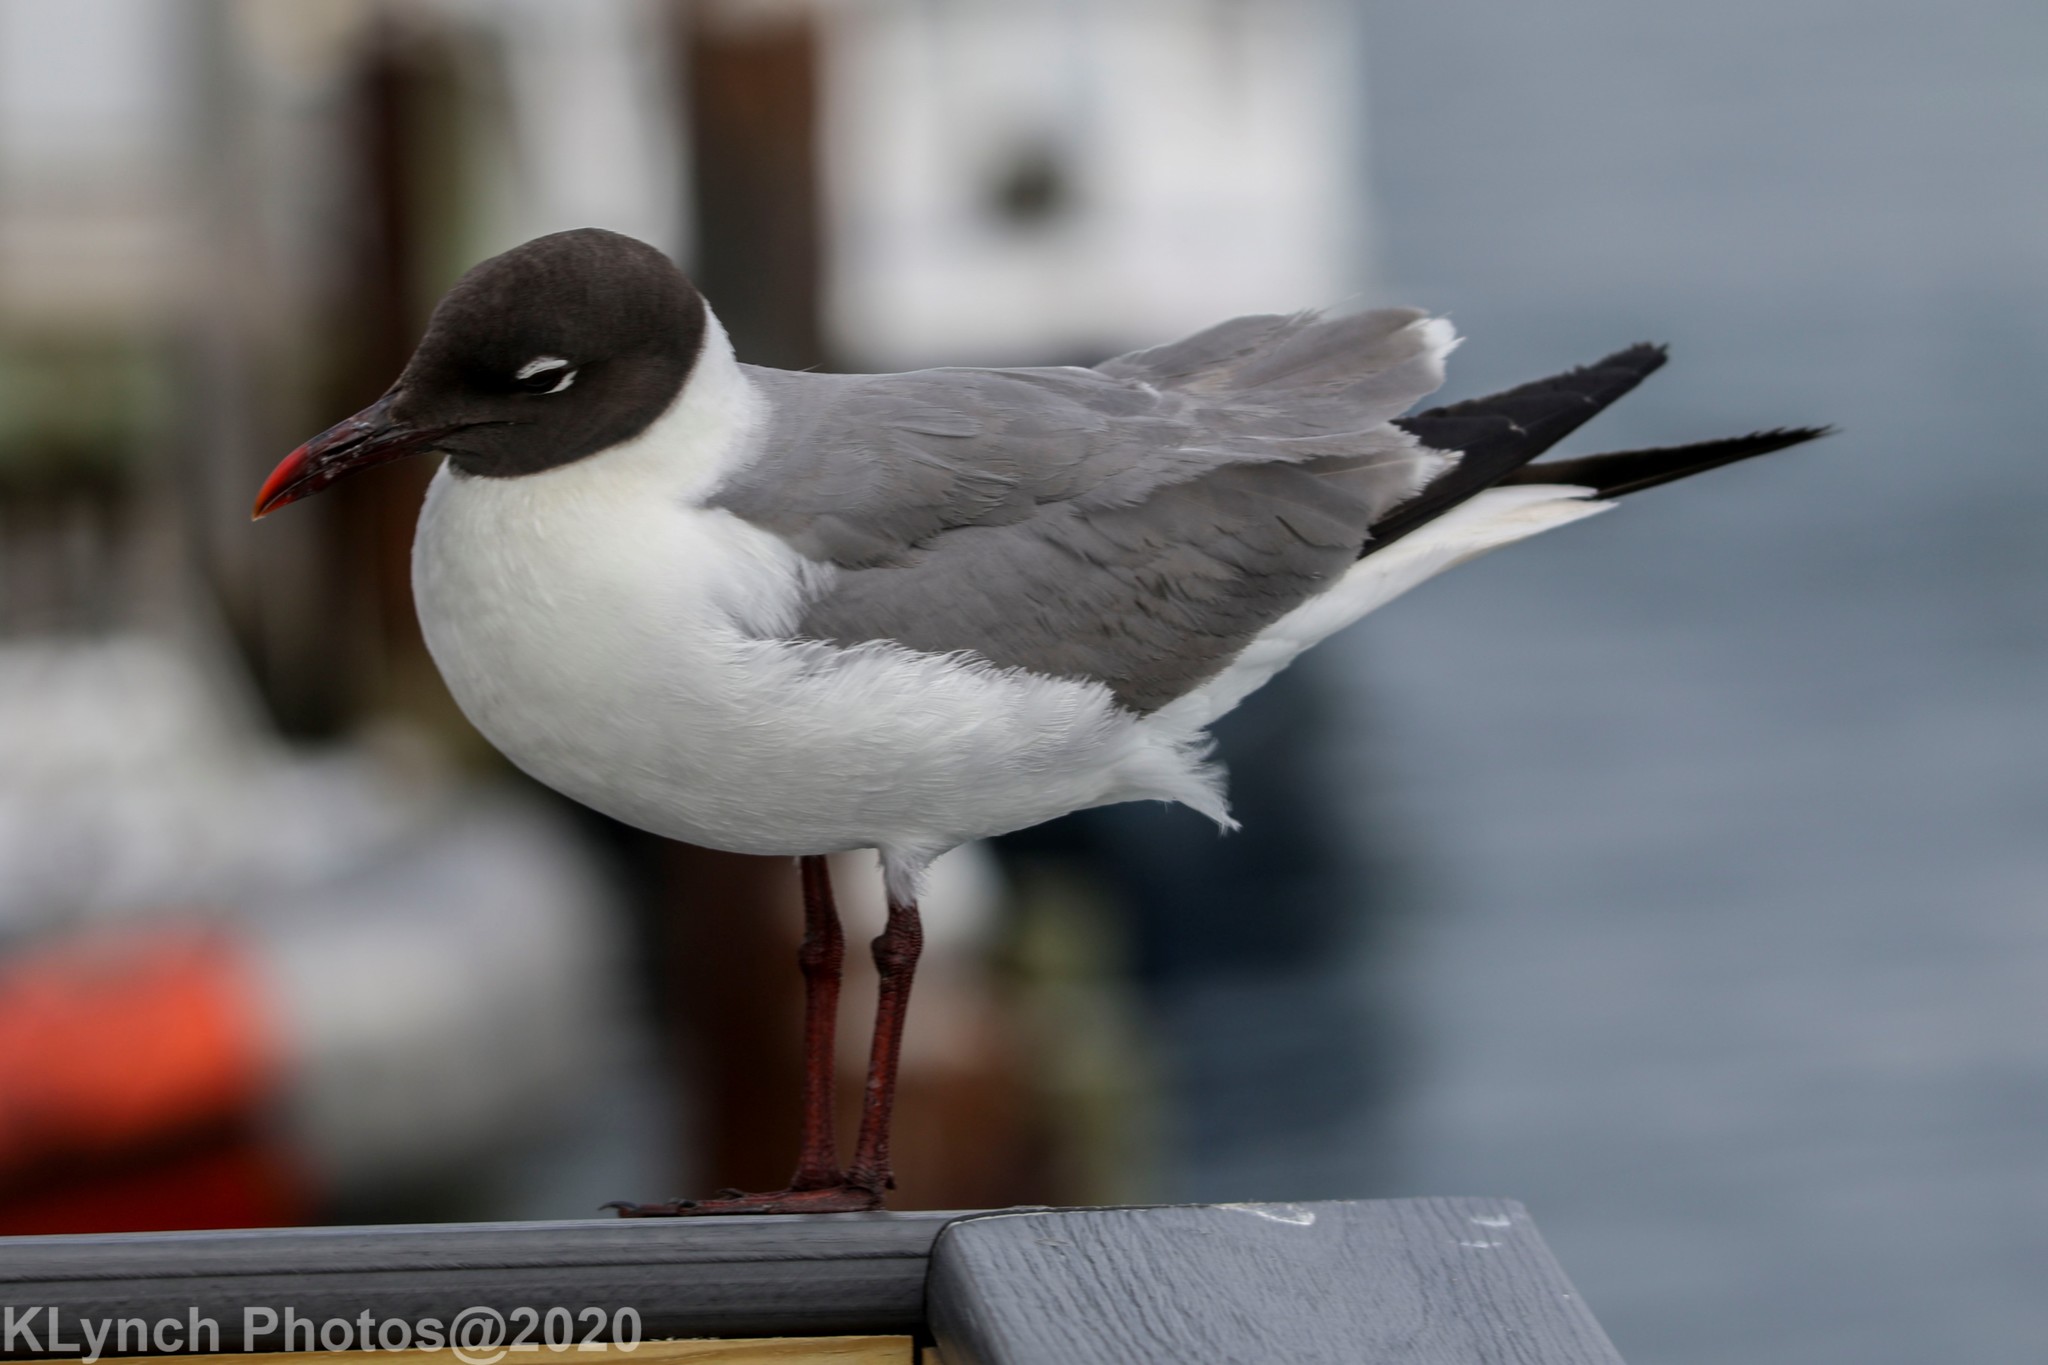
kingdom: Animalia
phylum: Chordata
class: Aves
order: Charadriiformes
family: Laridae
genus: Leucophaeus
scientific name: Leucophaeus atricilla
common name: Laughing gull
